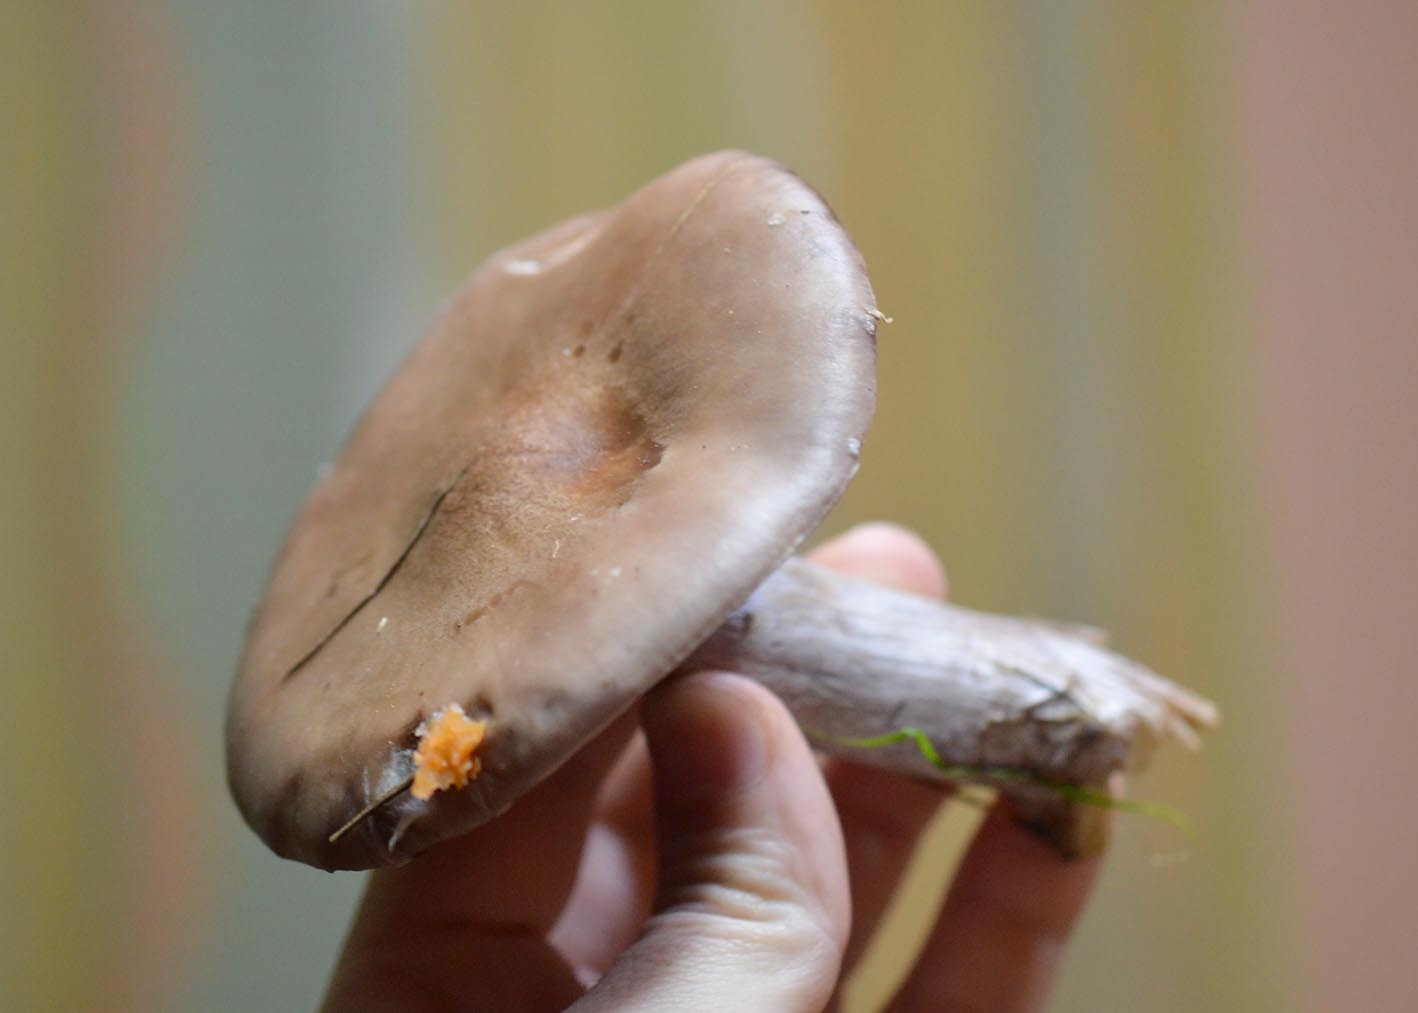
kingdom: Fungi
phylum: Basidiomycota
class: Agaricomycetes
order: Agaricales
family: Tricholomataceae
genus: Collybia
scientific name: Collybia
